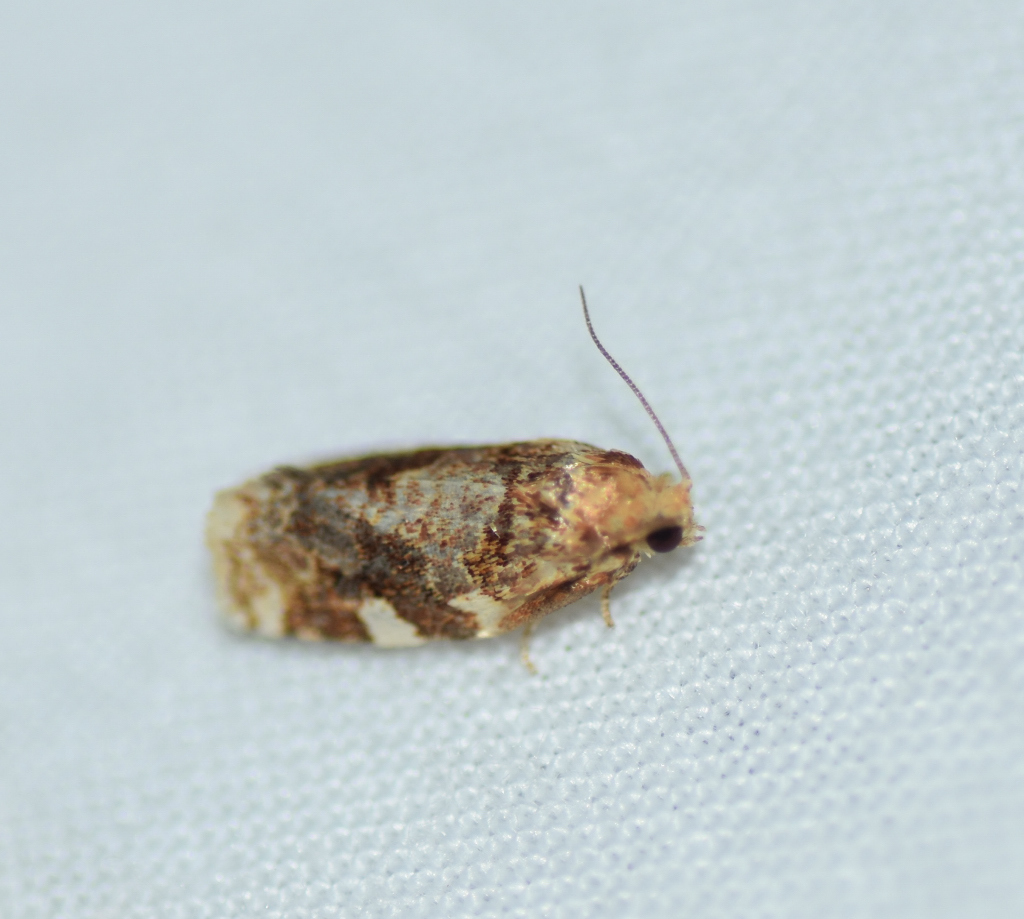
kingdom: Animalia
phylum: Arthropoda
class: Insecta
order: Lepidoptera
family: Tortricidae
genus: Archips
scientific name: Archips argyrospila
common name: Fruit-tree leafroller moth
